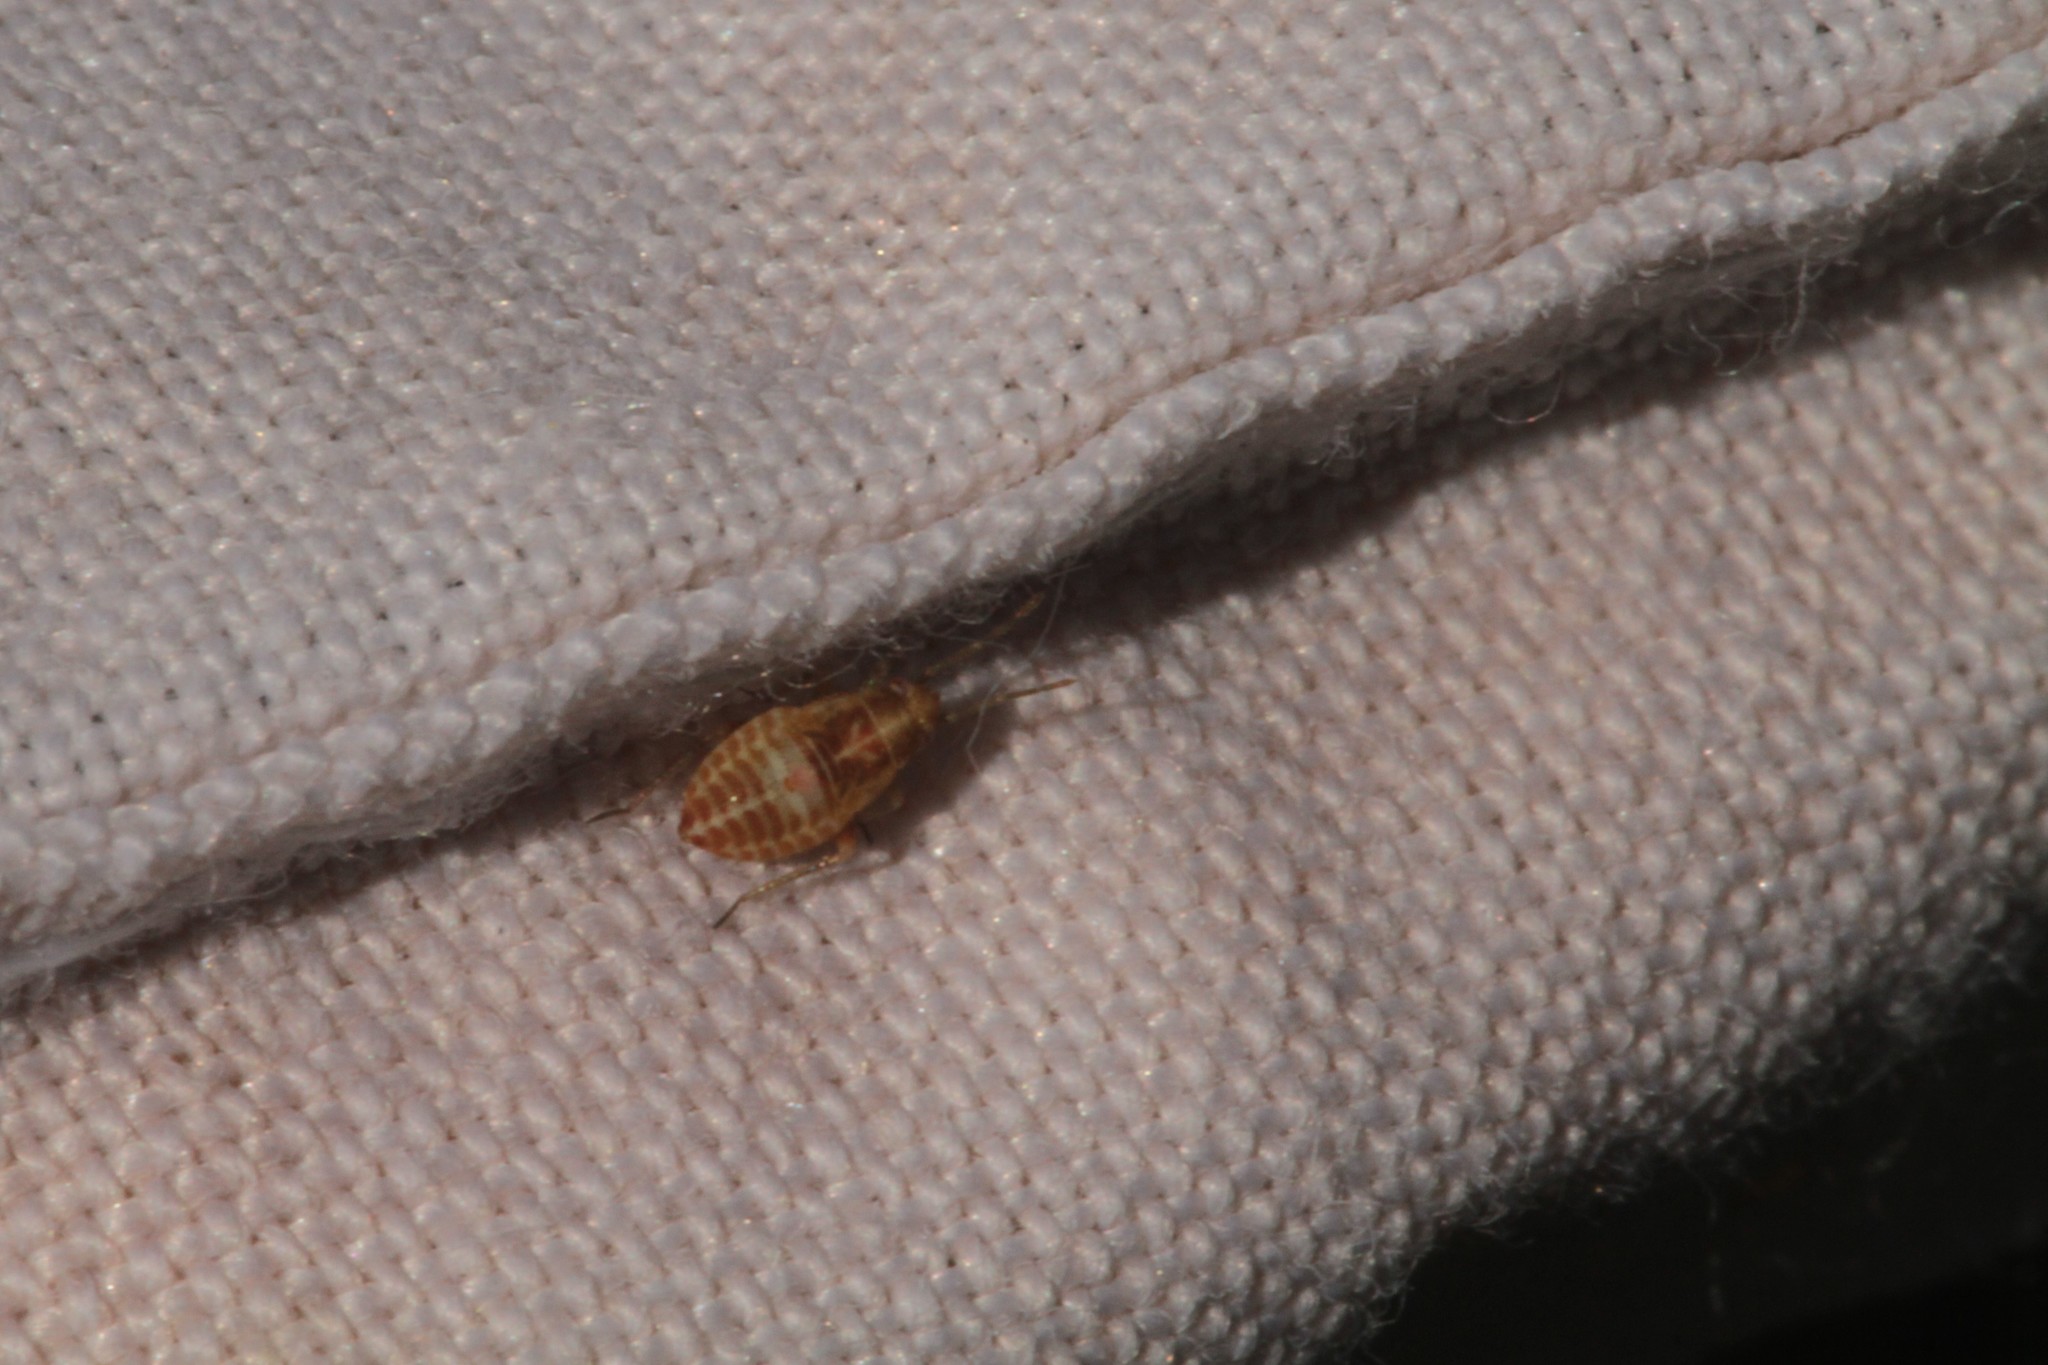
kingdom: Animalia
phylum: Arthropoda
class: Insecta
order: Hemiptera
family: Miridae
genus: Harpocera
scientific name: Harpocera thoracica
